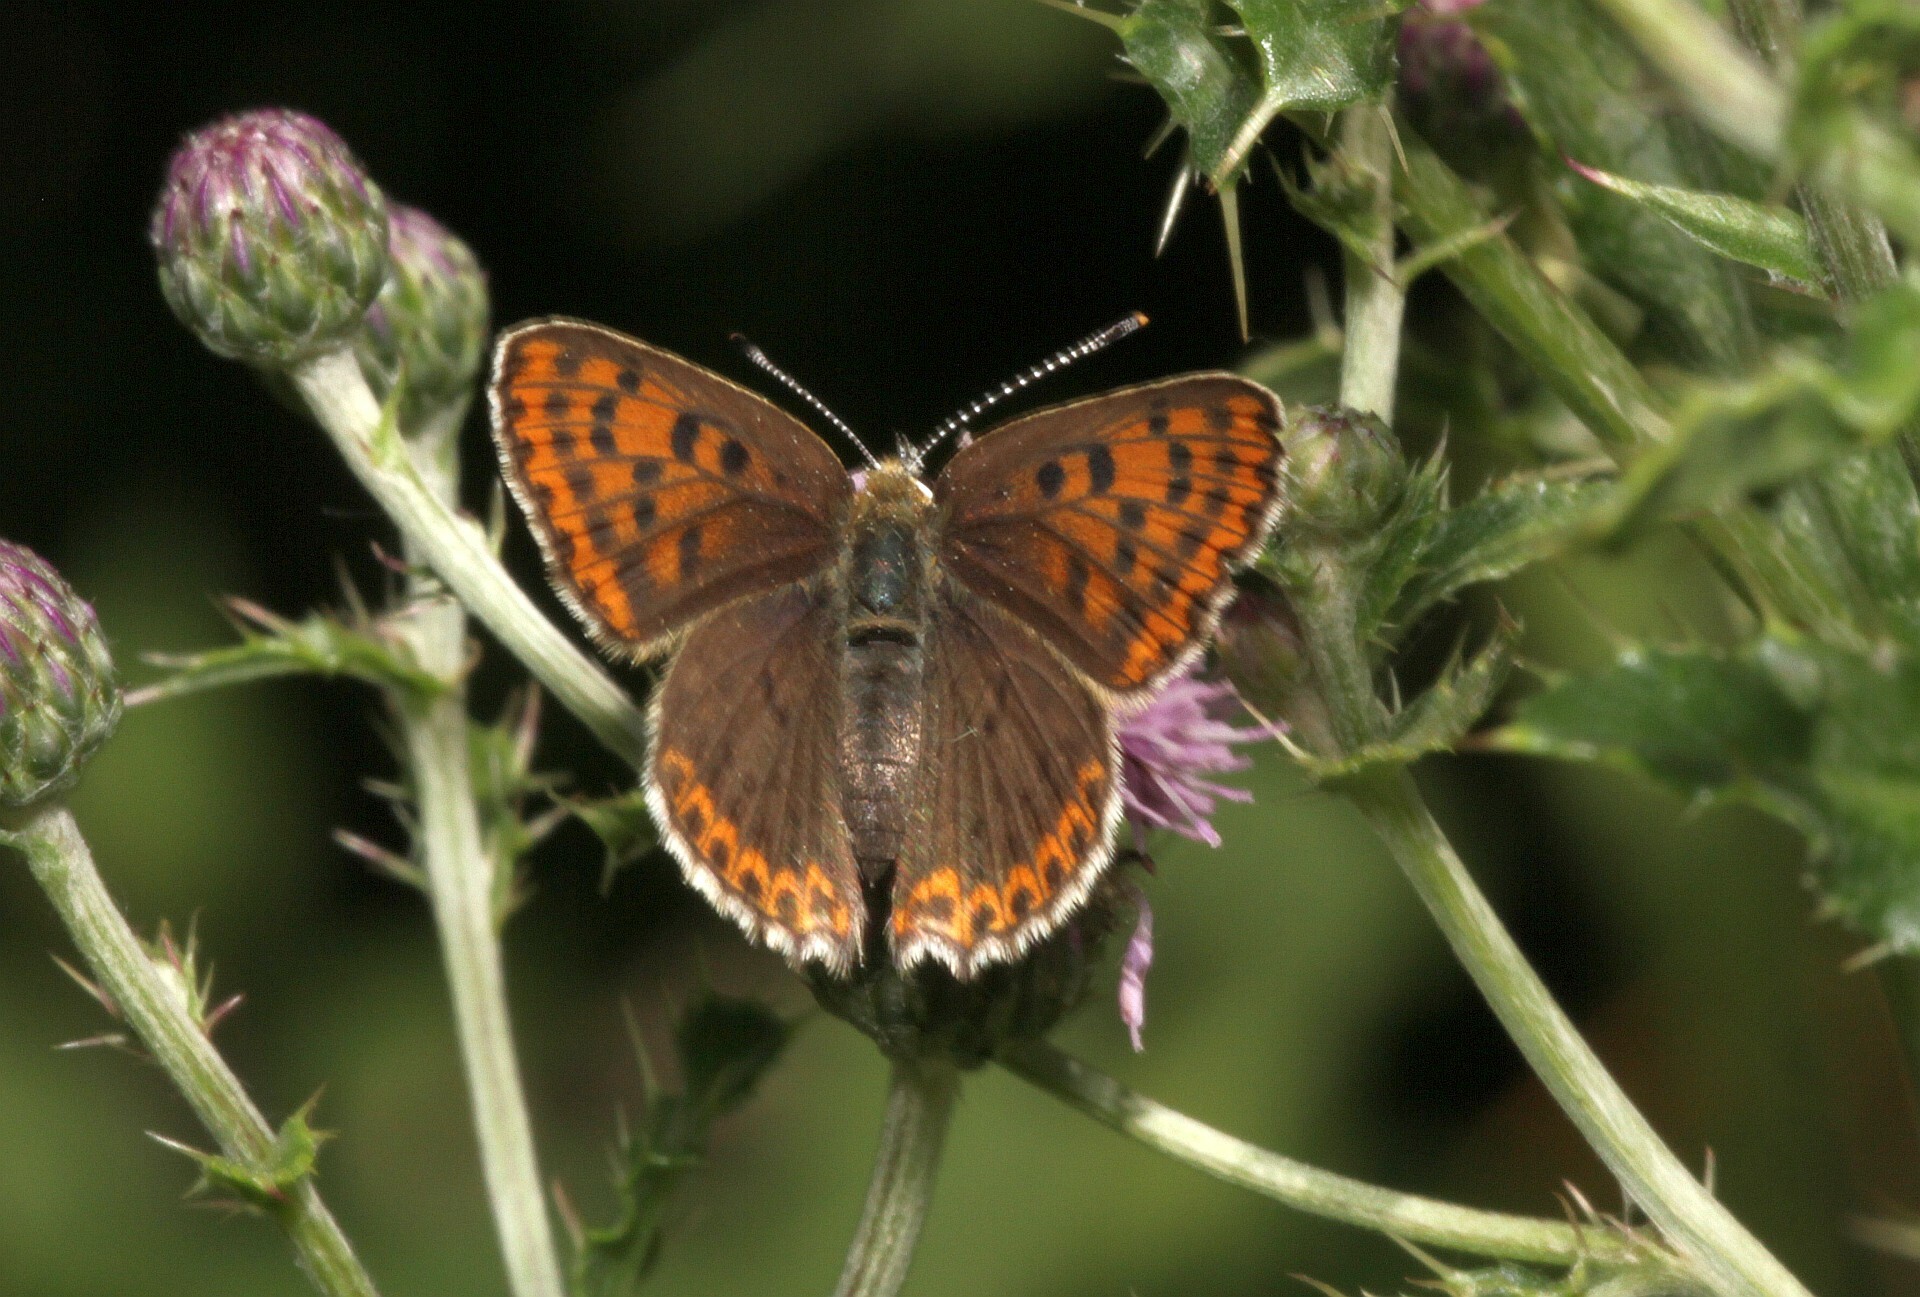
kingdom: Animalia
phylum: Arthropoda
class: Insecta
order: Lepidoptera
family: Lycaenidae
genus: Loweia
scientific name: Loweia tityrus
